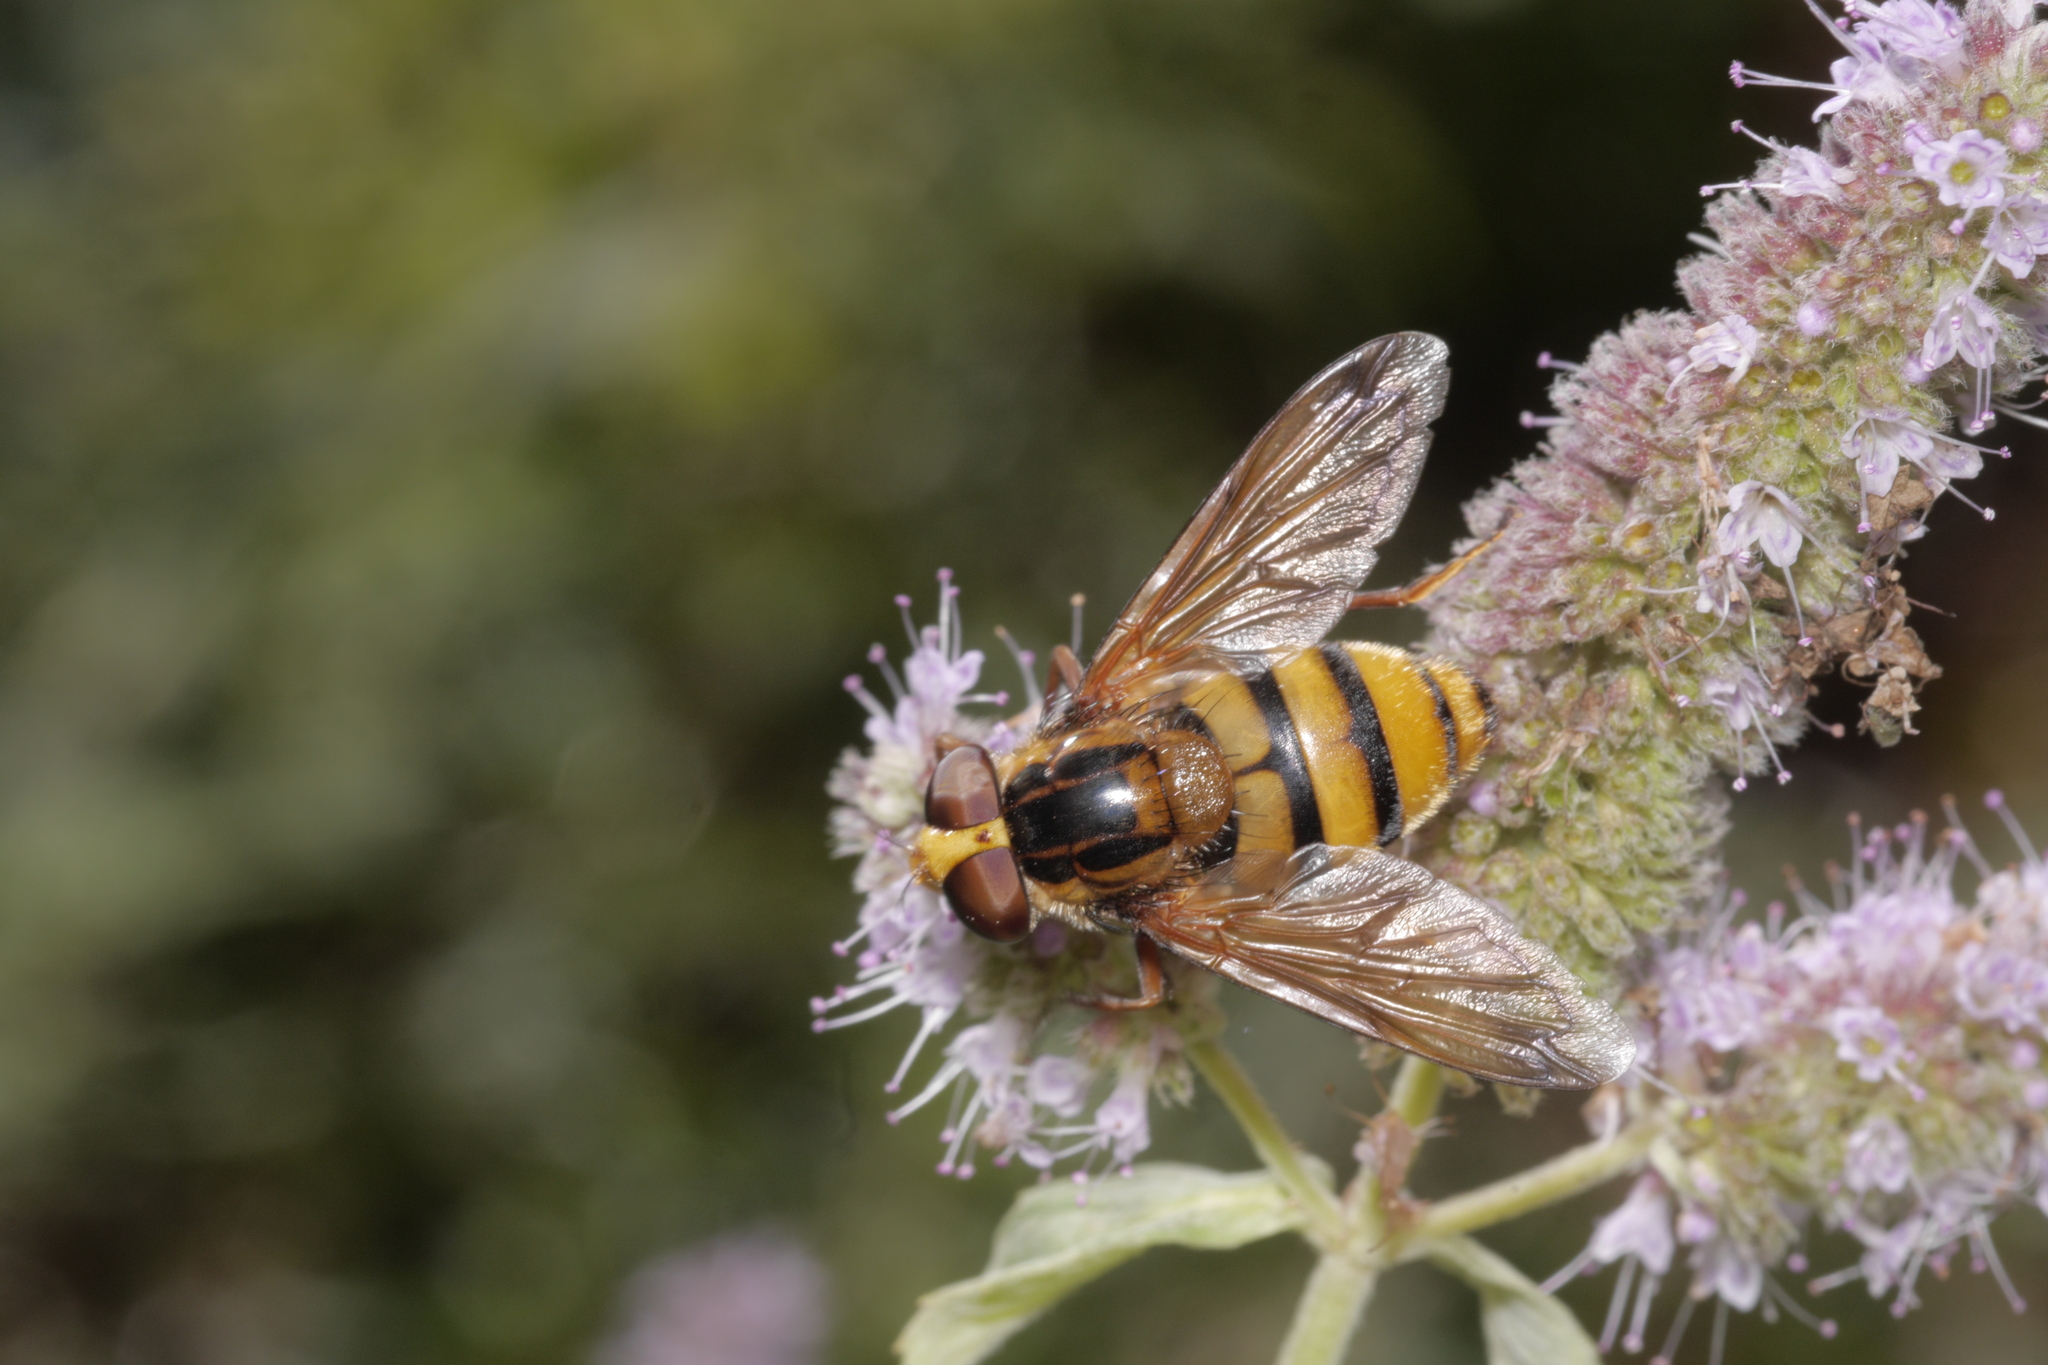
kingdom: Animalia
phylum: Arthropoda
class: Insecta
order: Diptera
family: Syrphidae
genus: Volucella
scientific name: Volucella inanis
